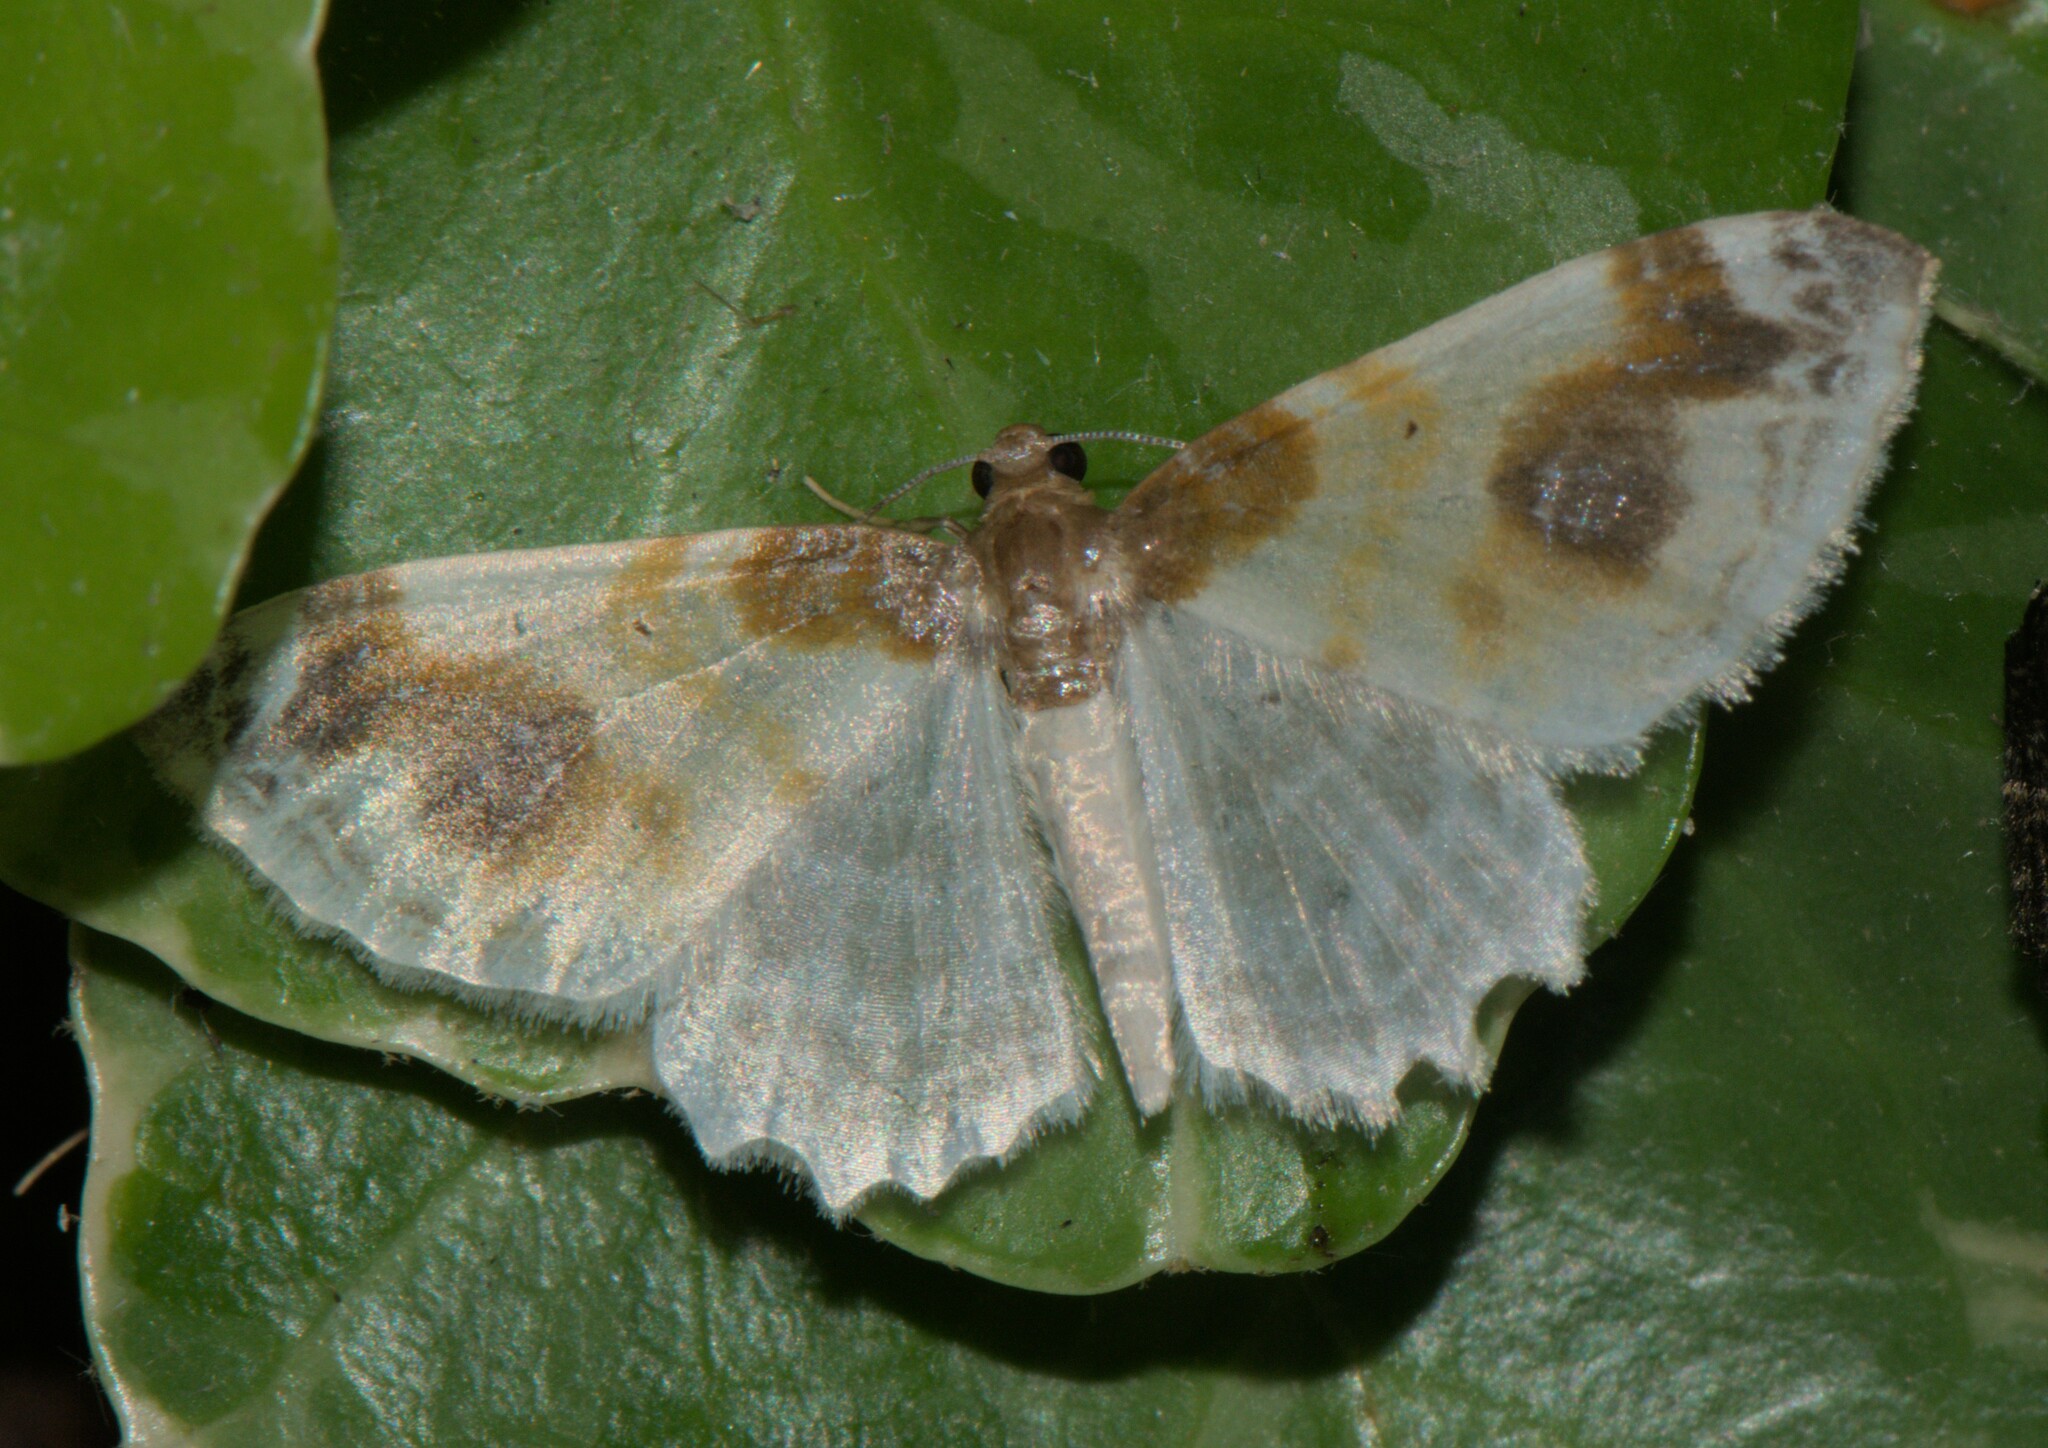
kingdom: Animalia
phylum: Arthropoda
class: Insecta
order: Lepidoptera
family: Geometridae
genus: Agnibesa
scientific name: Agnibesa pictaria
